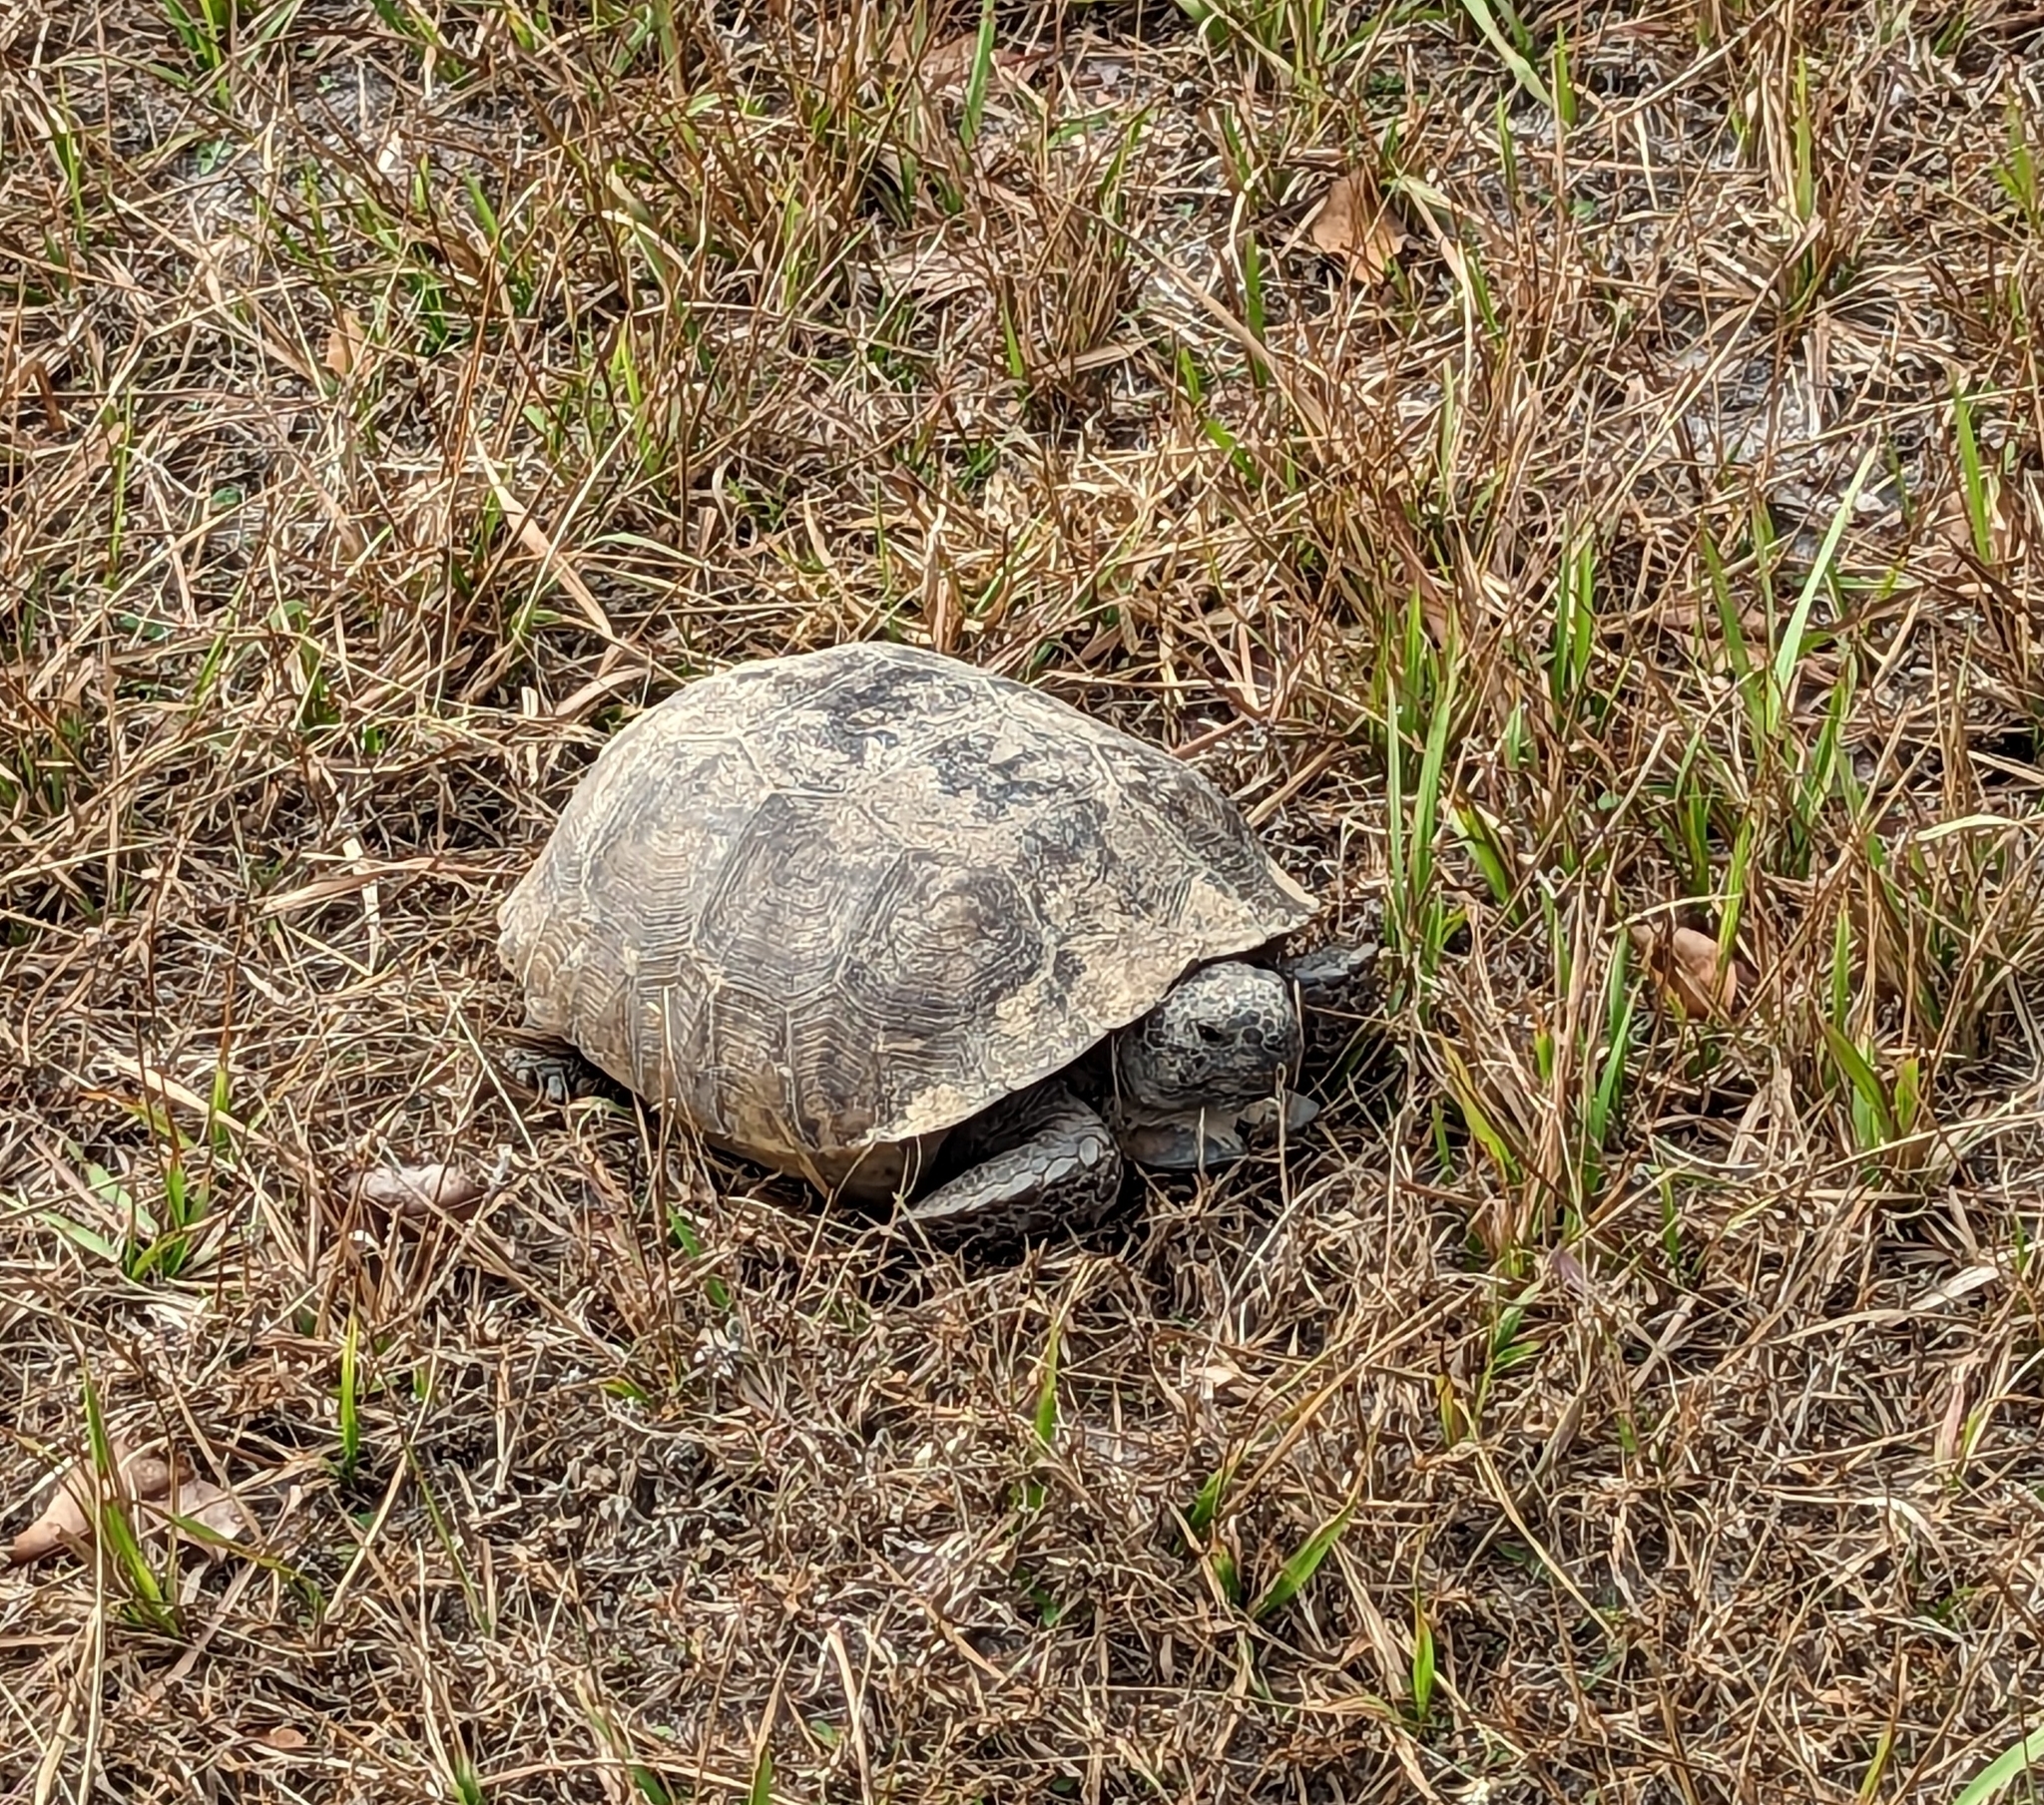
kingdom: Animalia
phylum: Chordata
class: Testudines
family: Testudinidae
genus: Gopherus
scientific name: Gopherus polyphemus
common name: Florida gopher tortoise
